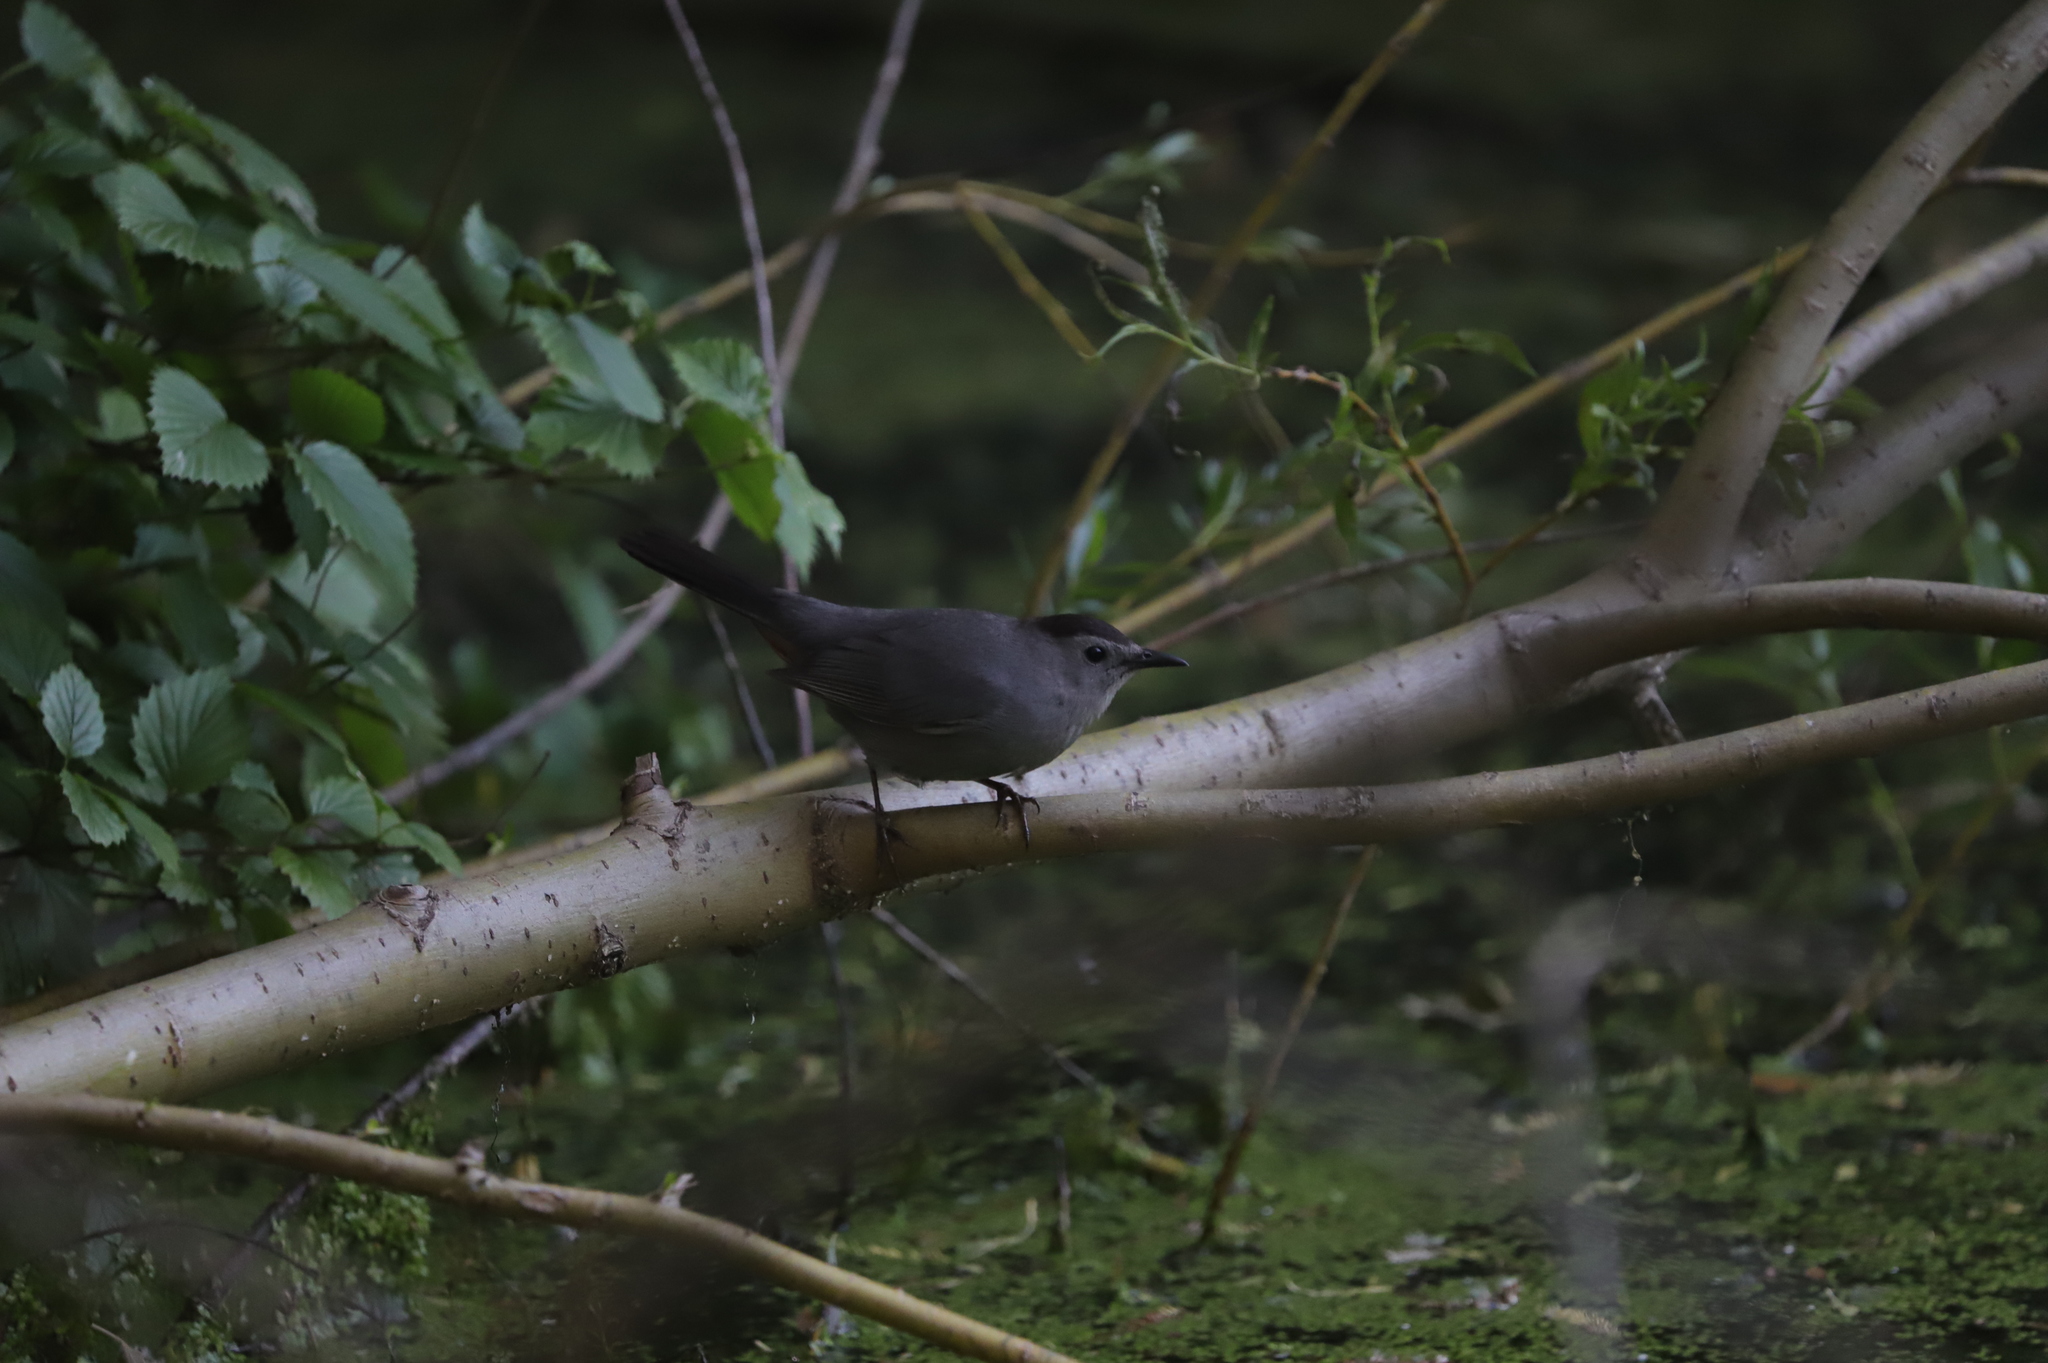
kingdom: Animalia
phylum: Chordata
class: Aves
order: Passeriformes
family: Mimidae
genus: Dumetella
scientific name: Dumetella carolinensis
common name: Gray catbird
